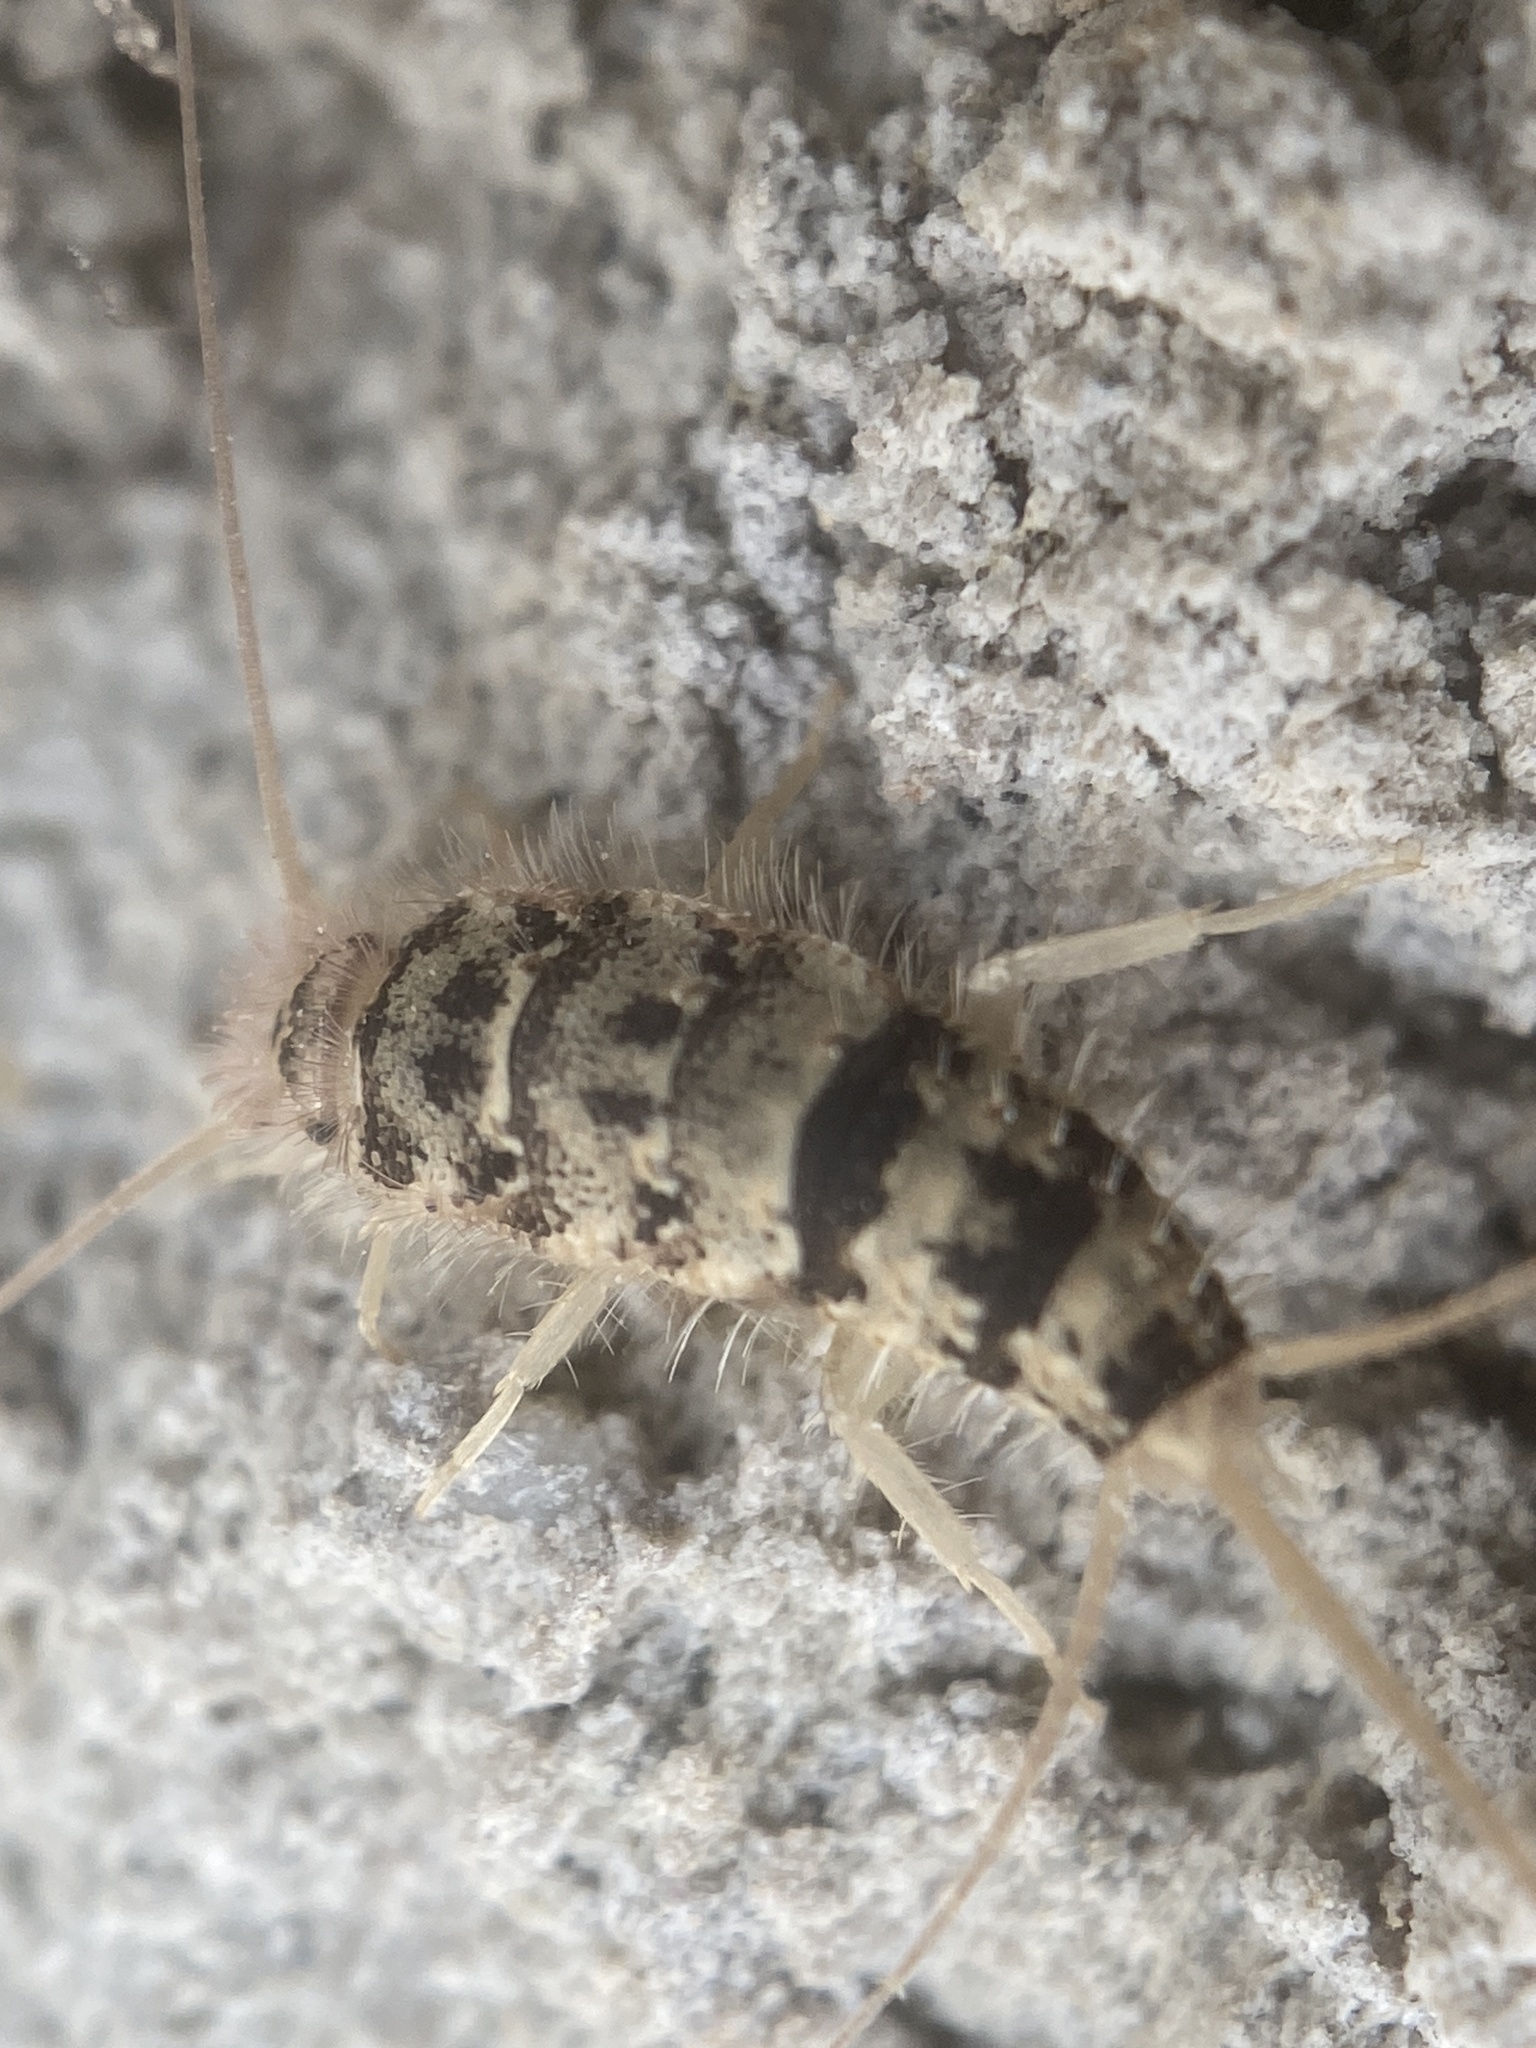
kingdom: Animalia
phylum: Arthropoda
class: Insecta
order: Zygentoma
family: Lepismatidae
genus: Thermobia
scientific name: Thermobia domestica
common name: Firebrat
